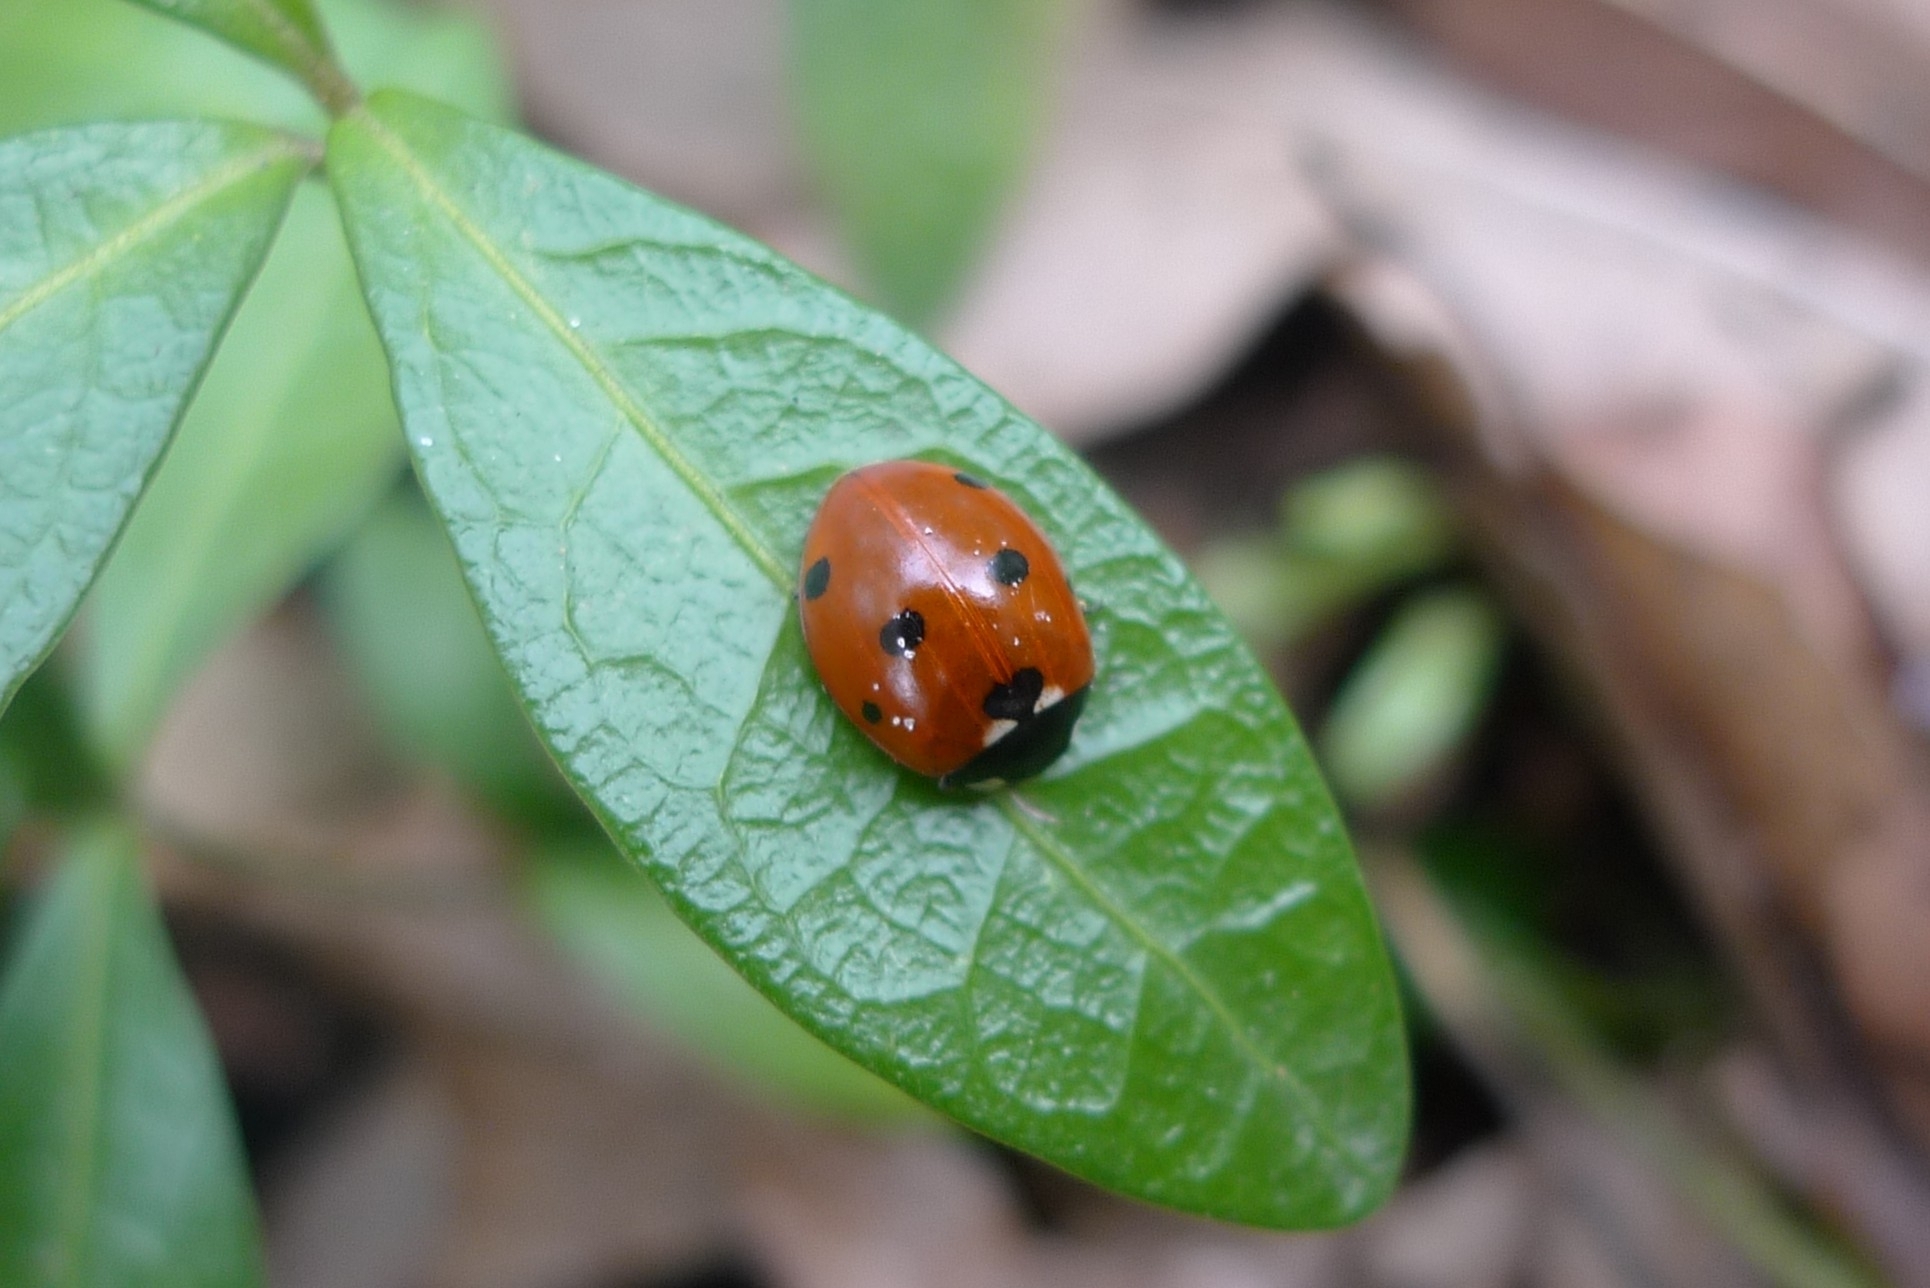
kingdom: Animalia
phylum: Arthropoda
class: Insecta
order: Coleoptera
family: Coccinellidae
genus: Coccinella
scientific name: Coccinella septempunctata
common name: Sevenspotted lady beetle
